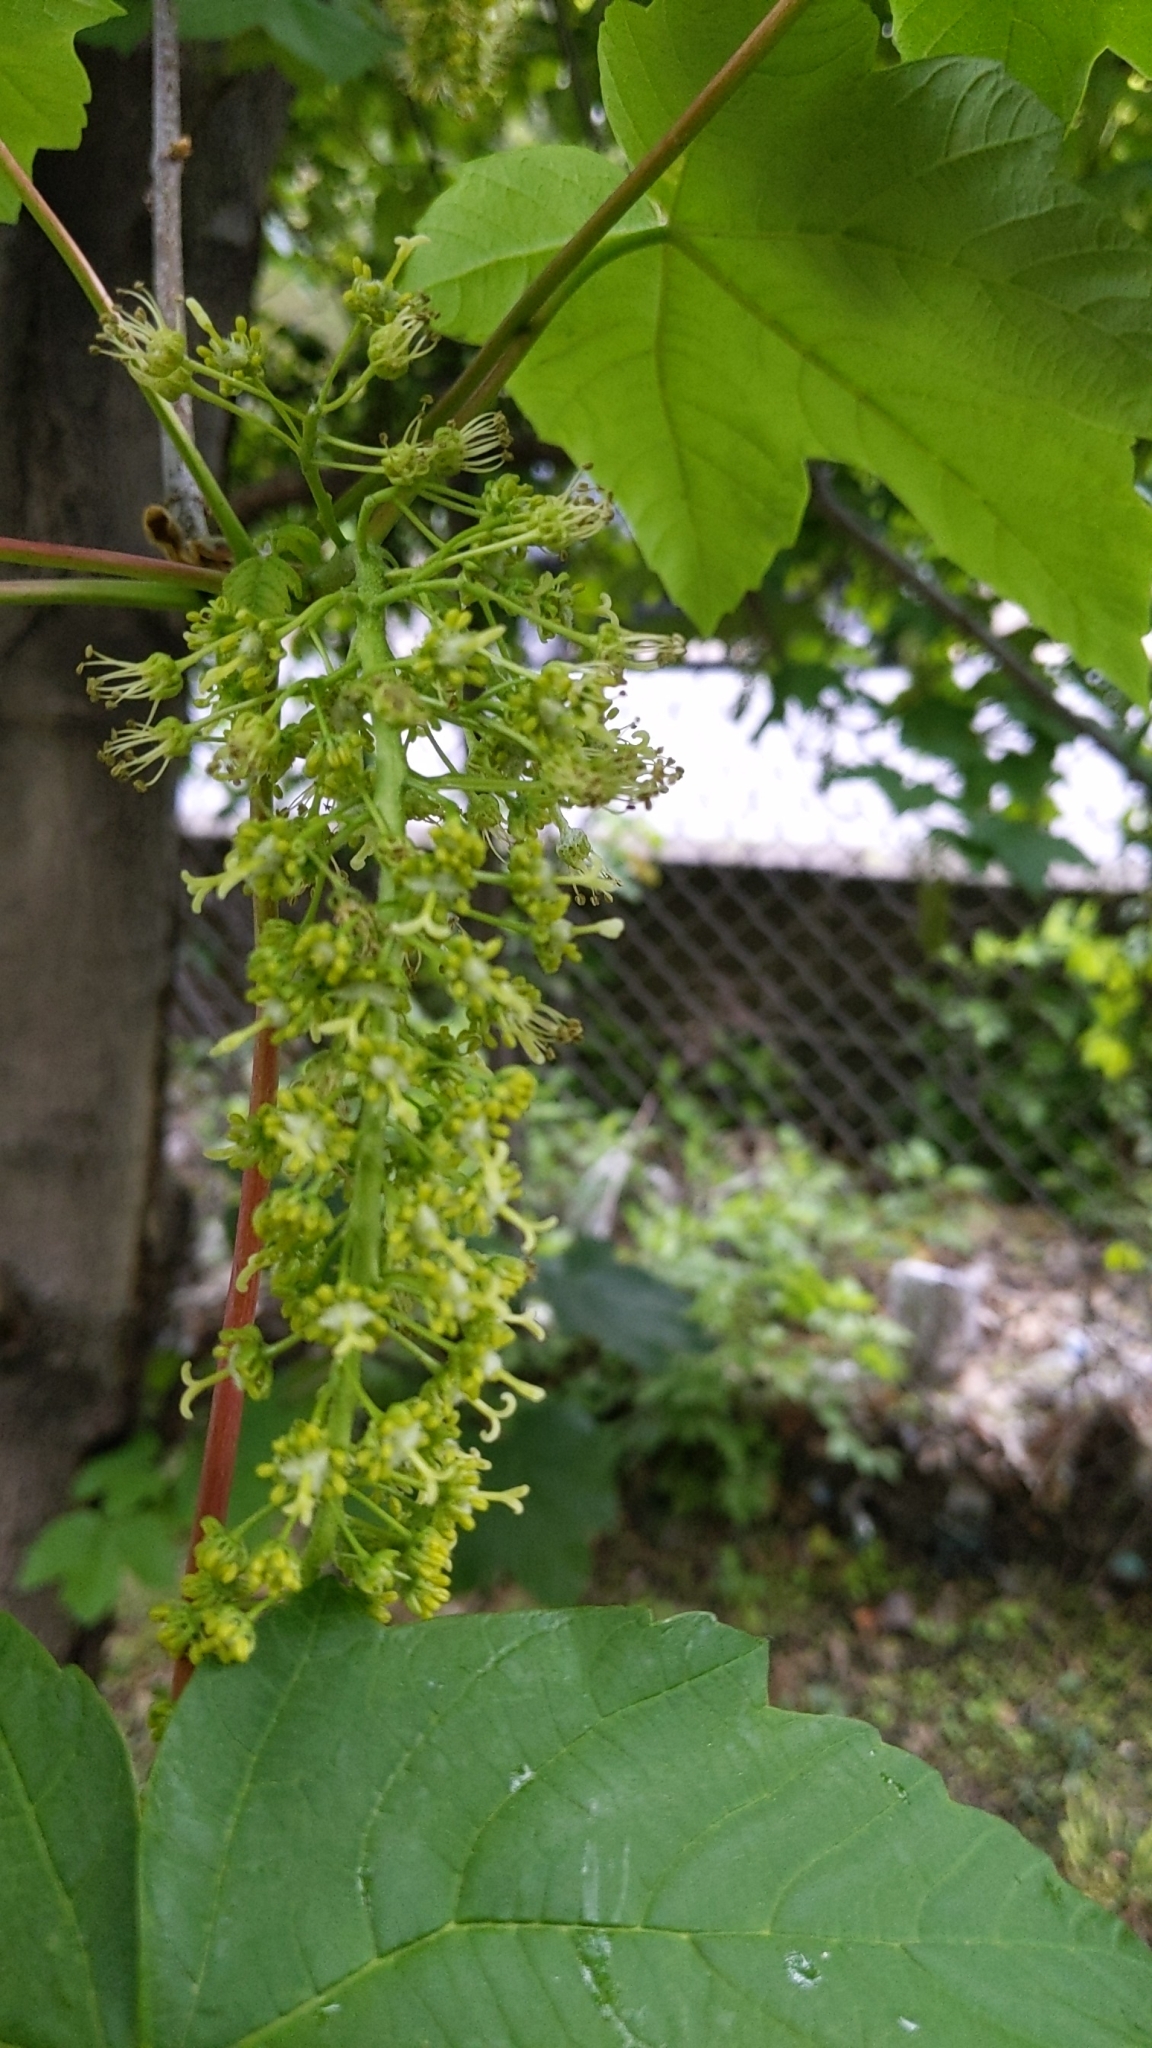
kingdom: Plantae
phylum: Tracheophyta
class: Magnoliopsida
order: Sapindales
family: Sapindaceae
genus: Acer
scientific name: Acer pseudoplatanus
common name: Sycamore
